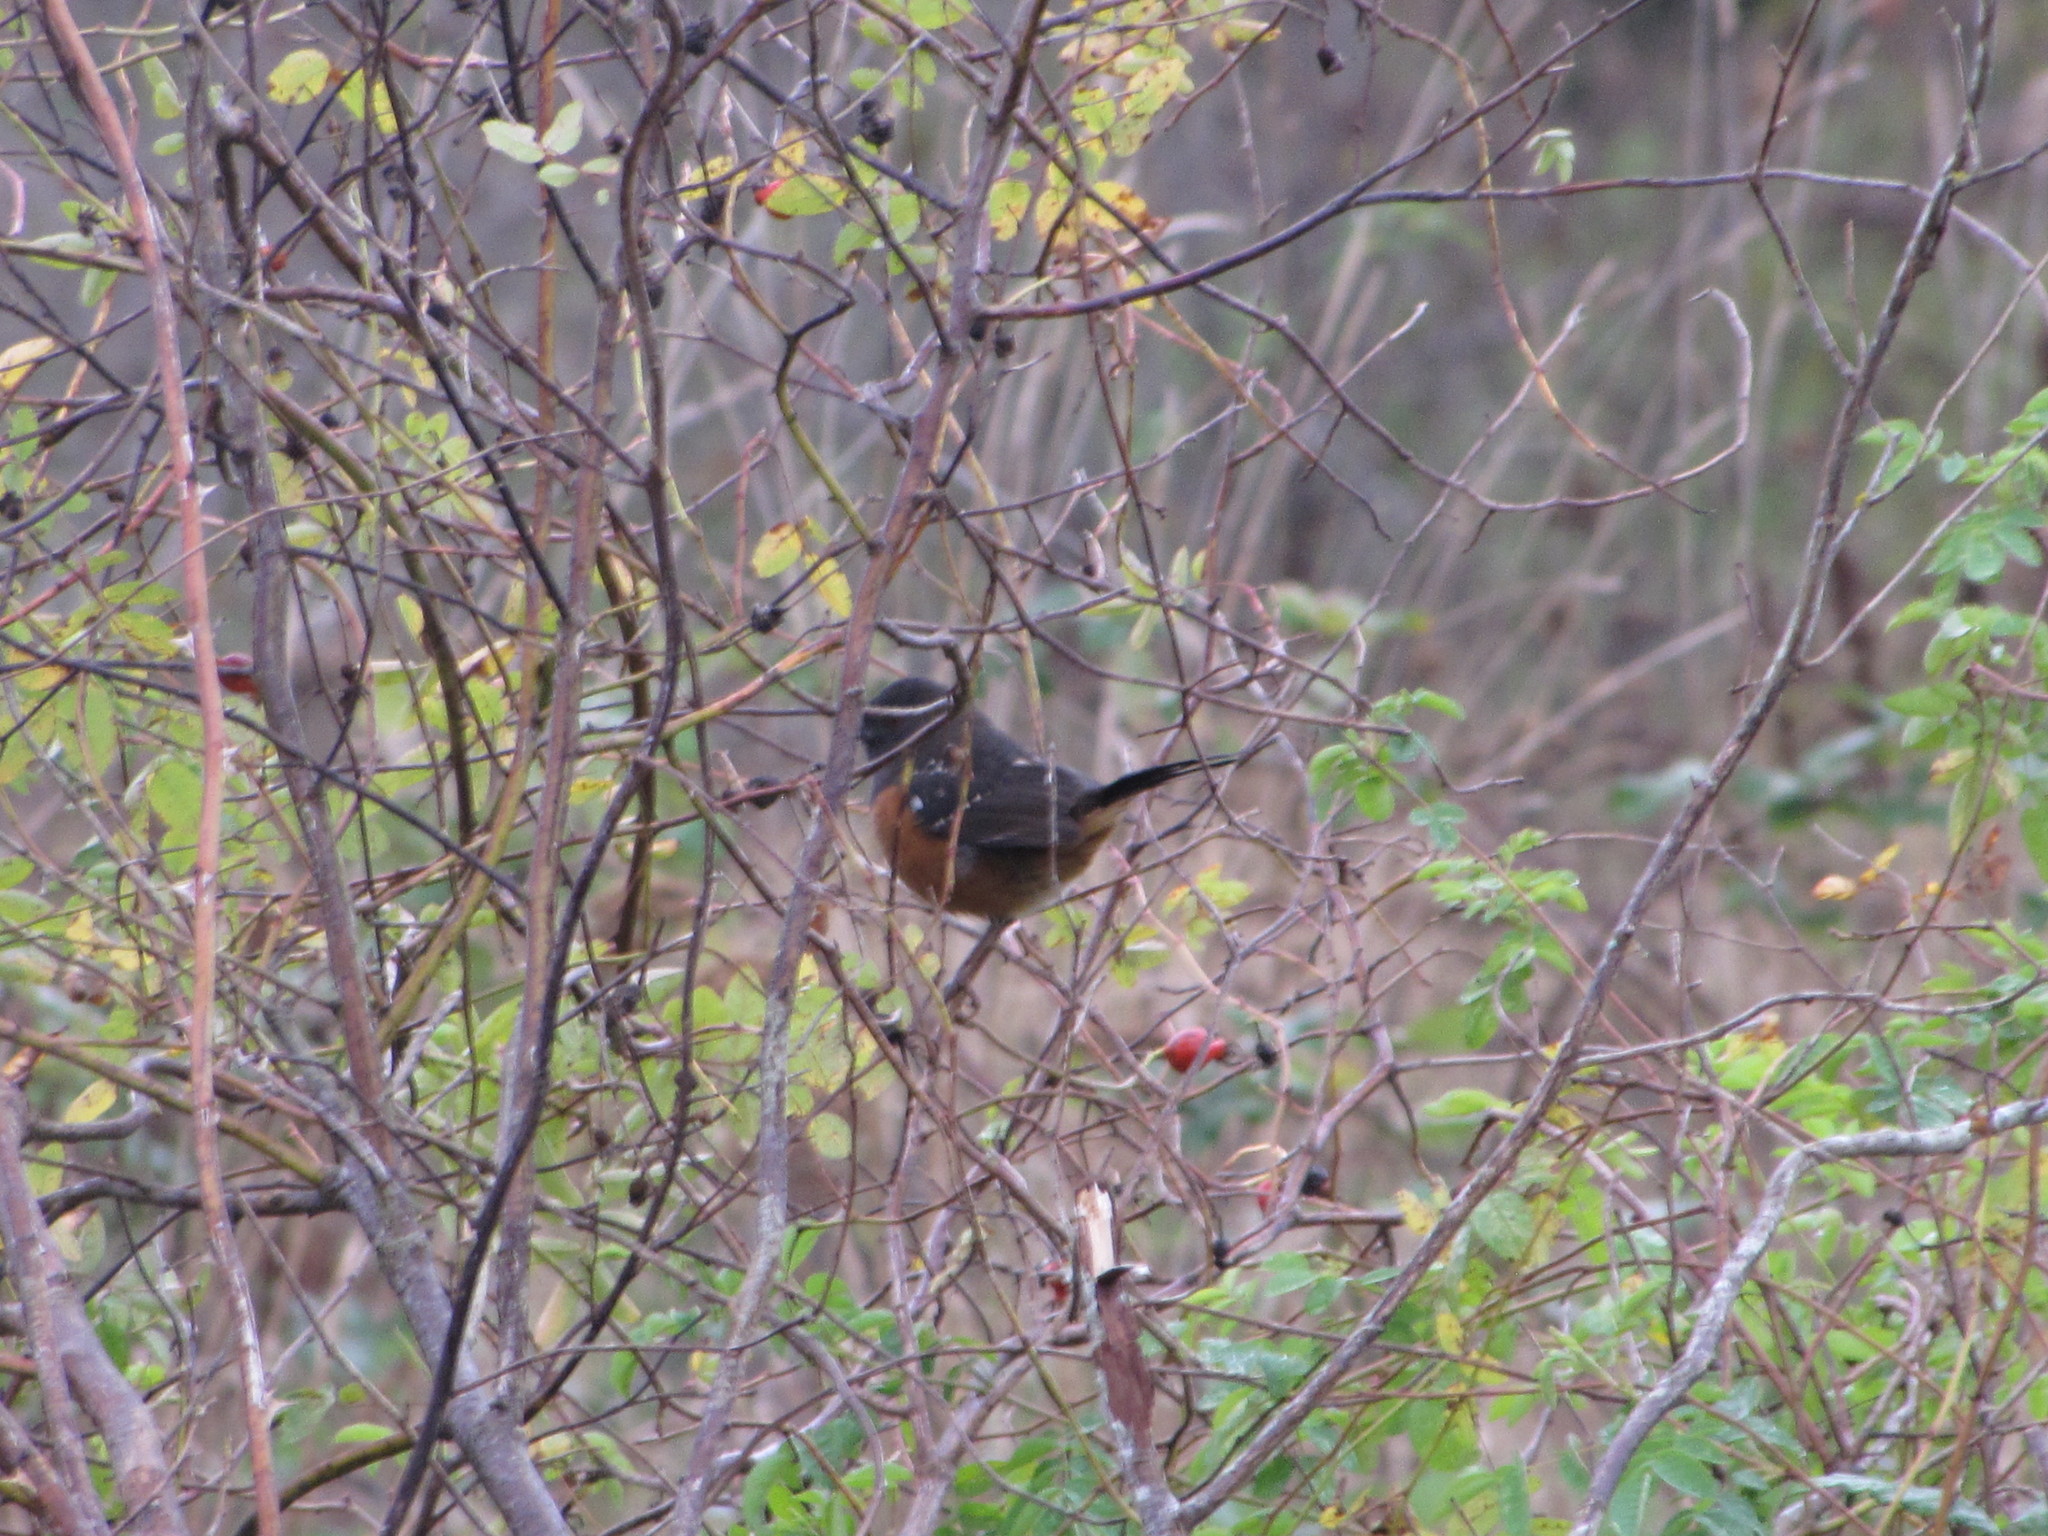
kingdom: Animalia
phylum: Chordata
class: Aves
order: Passeriformes
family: Passerellidae
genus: Pipilo
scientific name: Pipilo maculatus
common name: Spotted towhee
